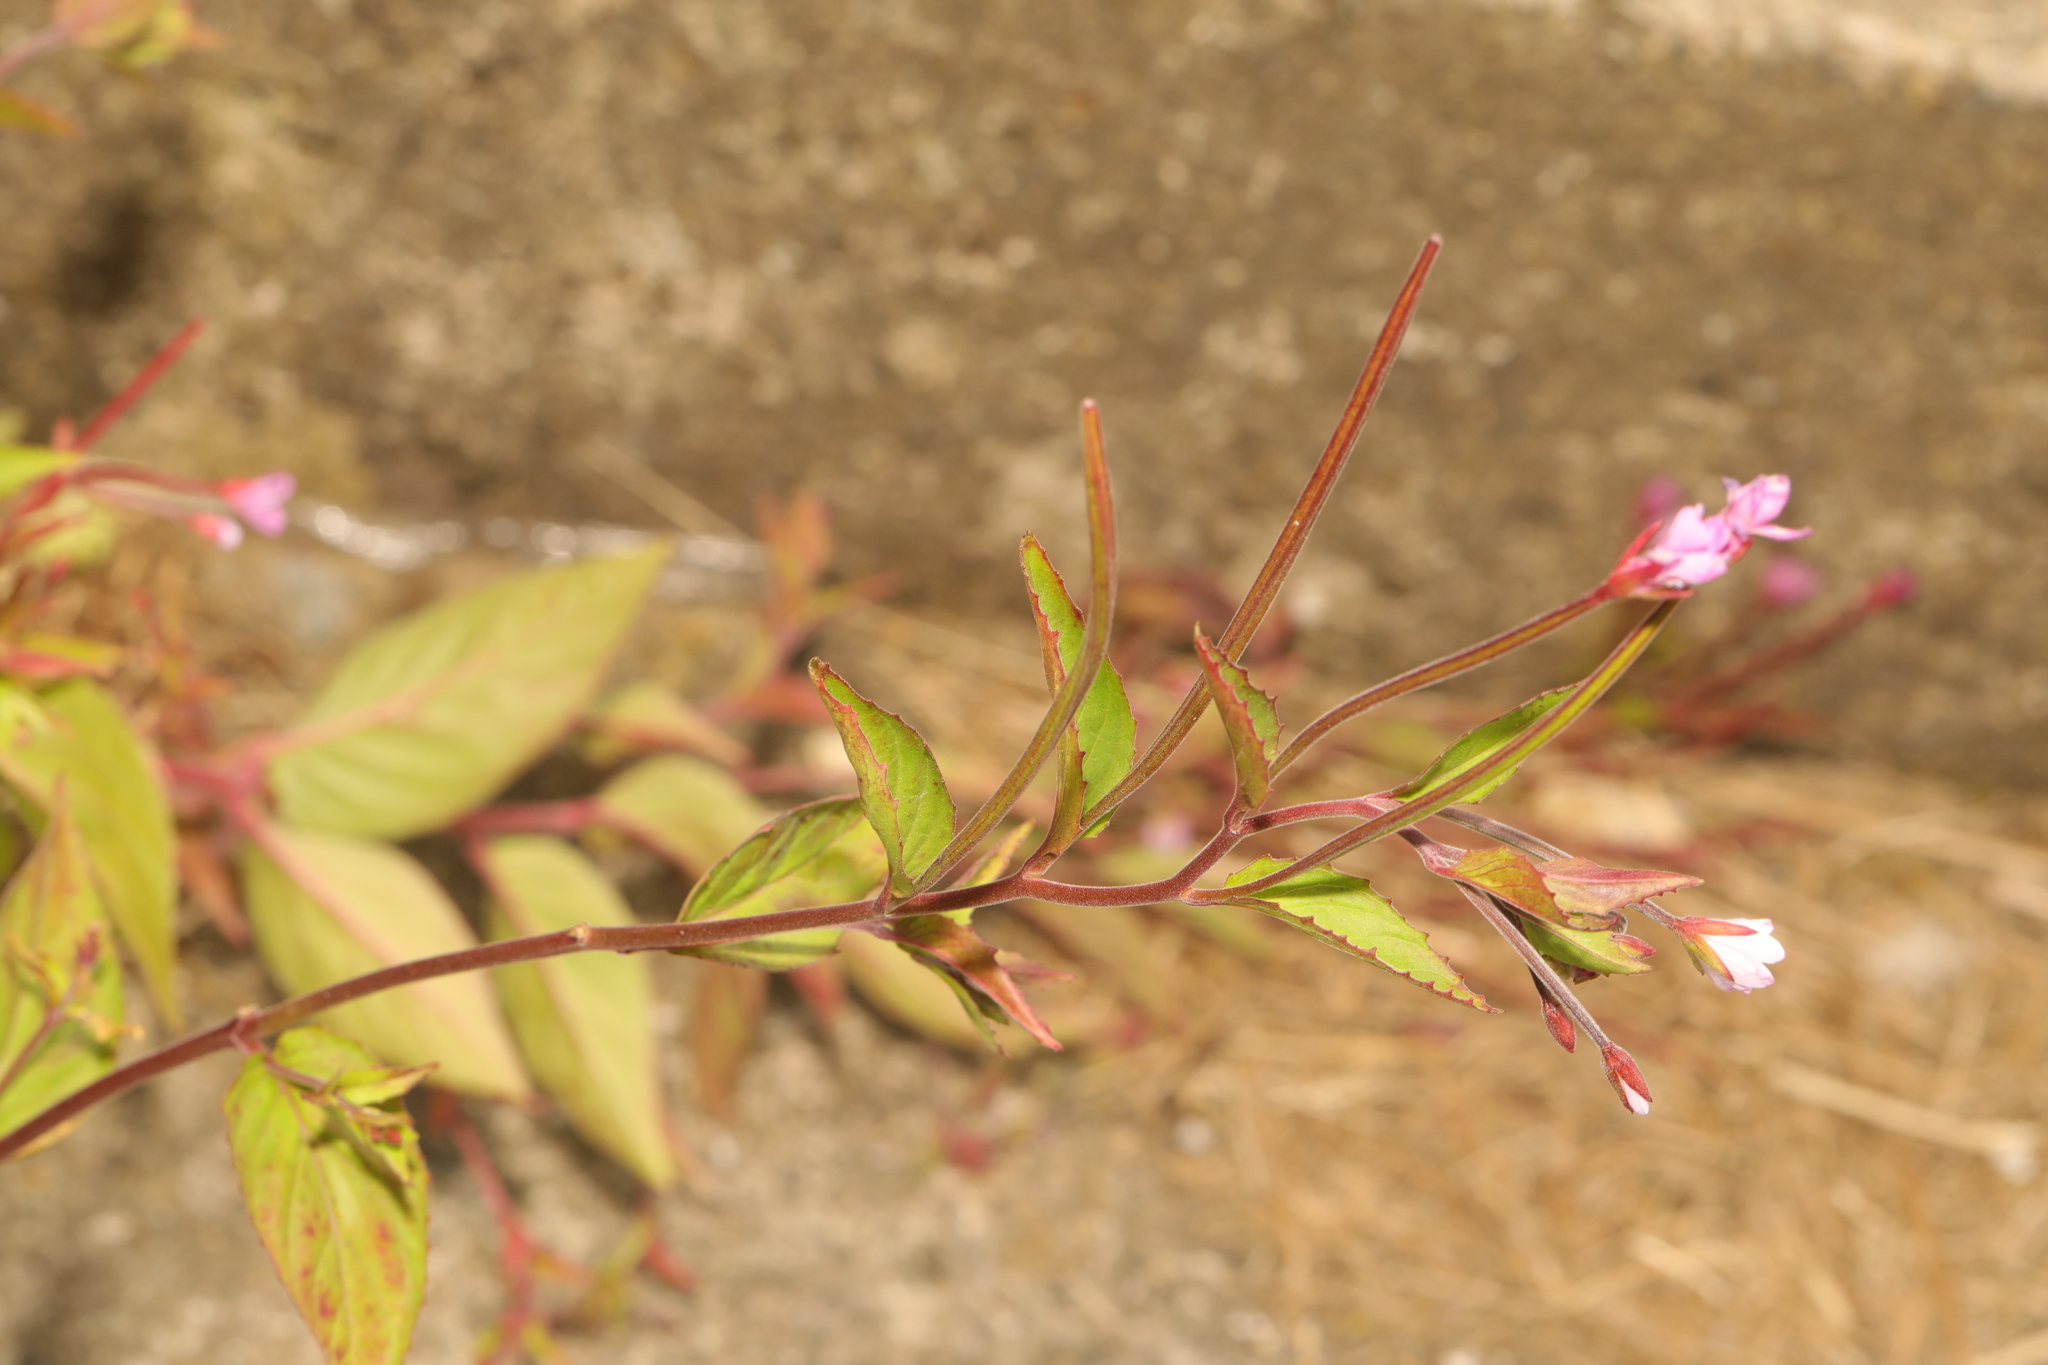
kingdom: Plantae
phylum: Tracheophyta
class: Magnoliopsida
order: Myrtales
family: Onagraceae
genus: Epilobium
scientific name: Epilobium montanum
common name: Broad-leaved willowherb
